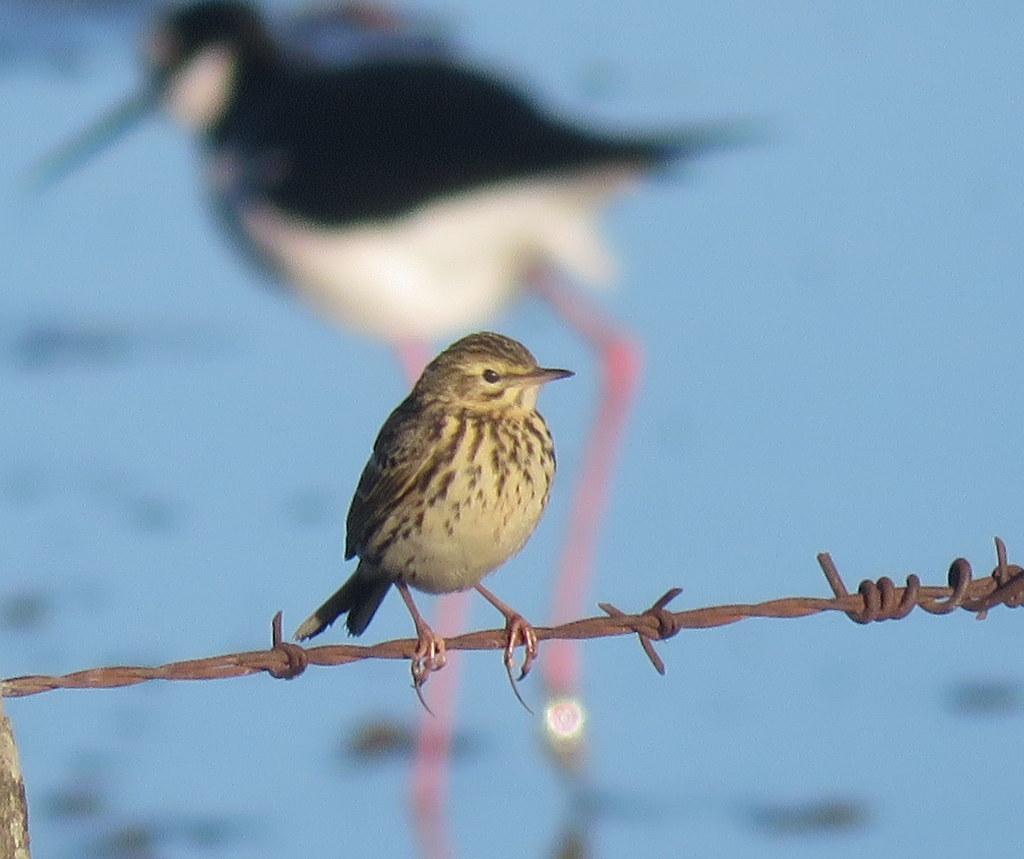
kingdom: Animalia
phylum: Chordata
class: Aves
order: Passeriformes
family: Motacillidae
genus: Anthus
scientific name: Anthus correndera
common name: Correndera pipit
